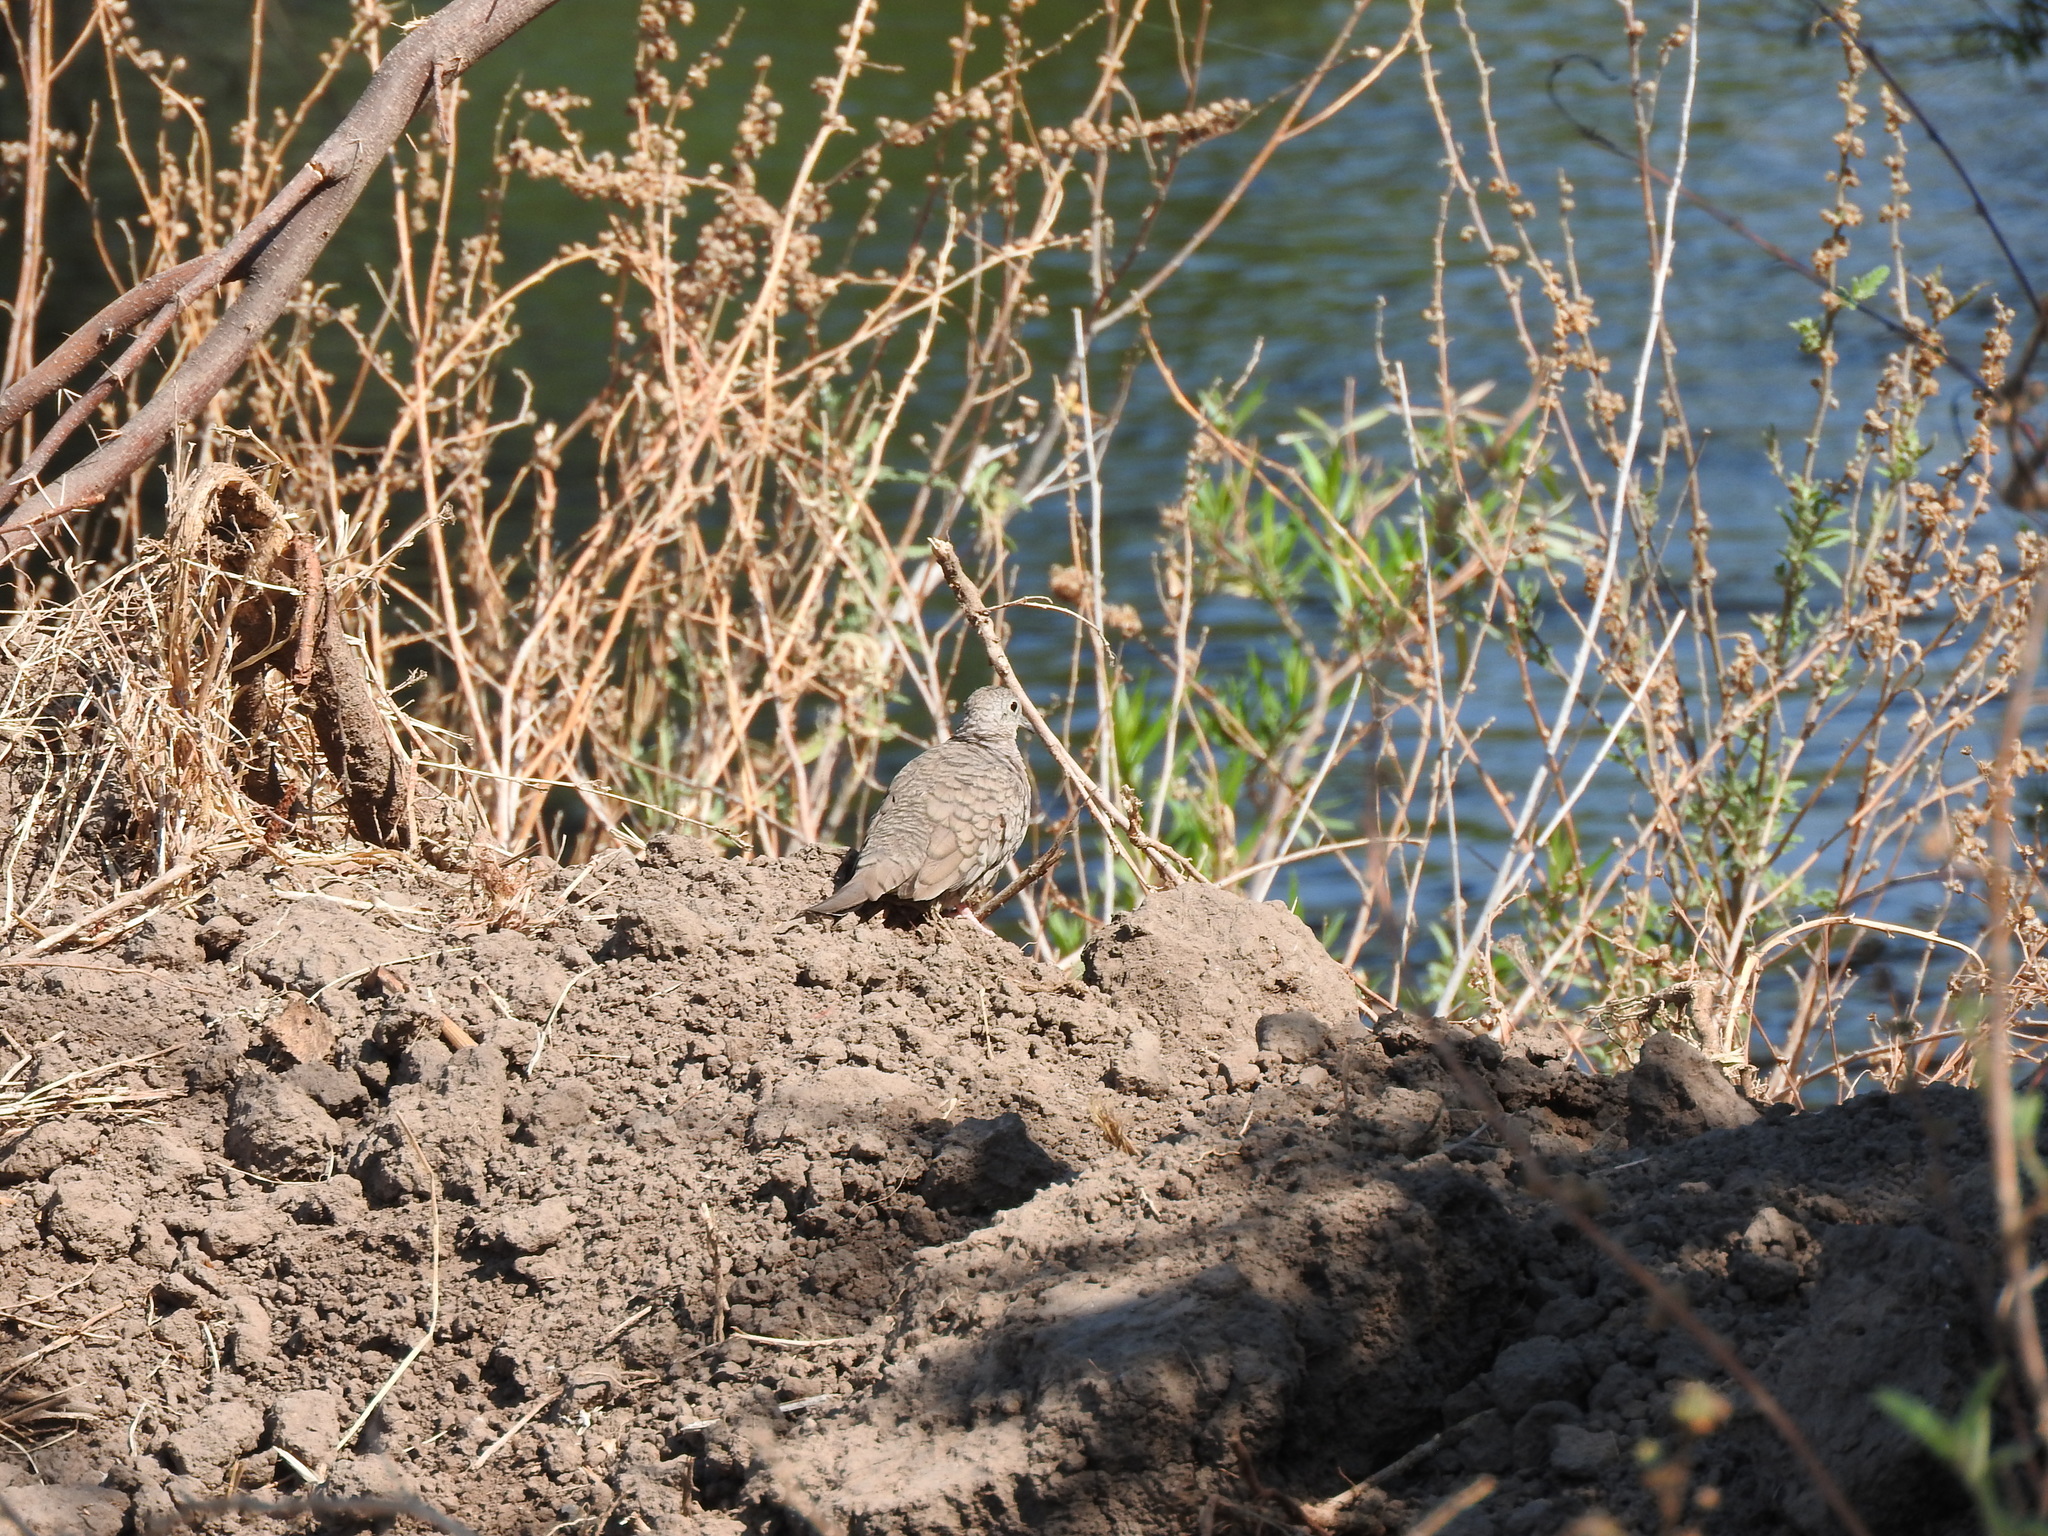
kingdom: Animalia
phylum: Chordata
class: Aves
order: Columbiformes
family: Columbidae
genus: Columbina
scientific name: Columbina inca
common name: Inca dove
